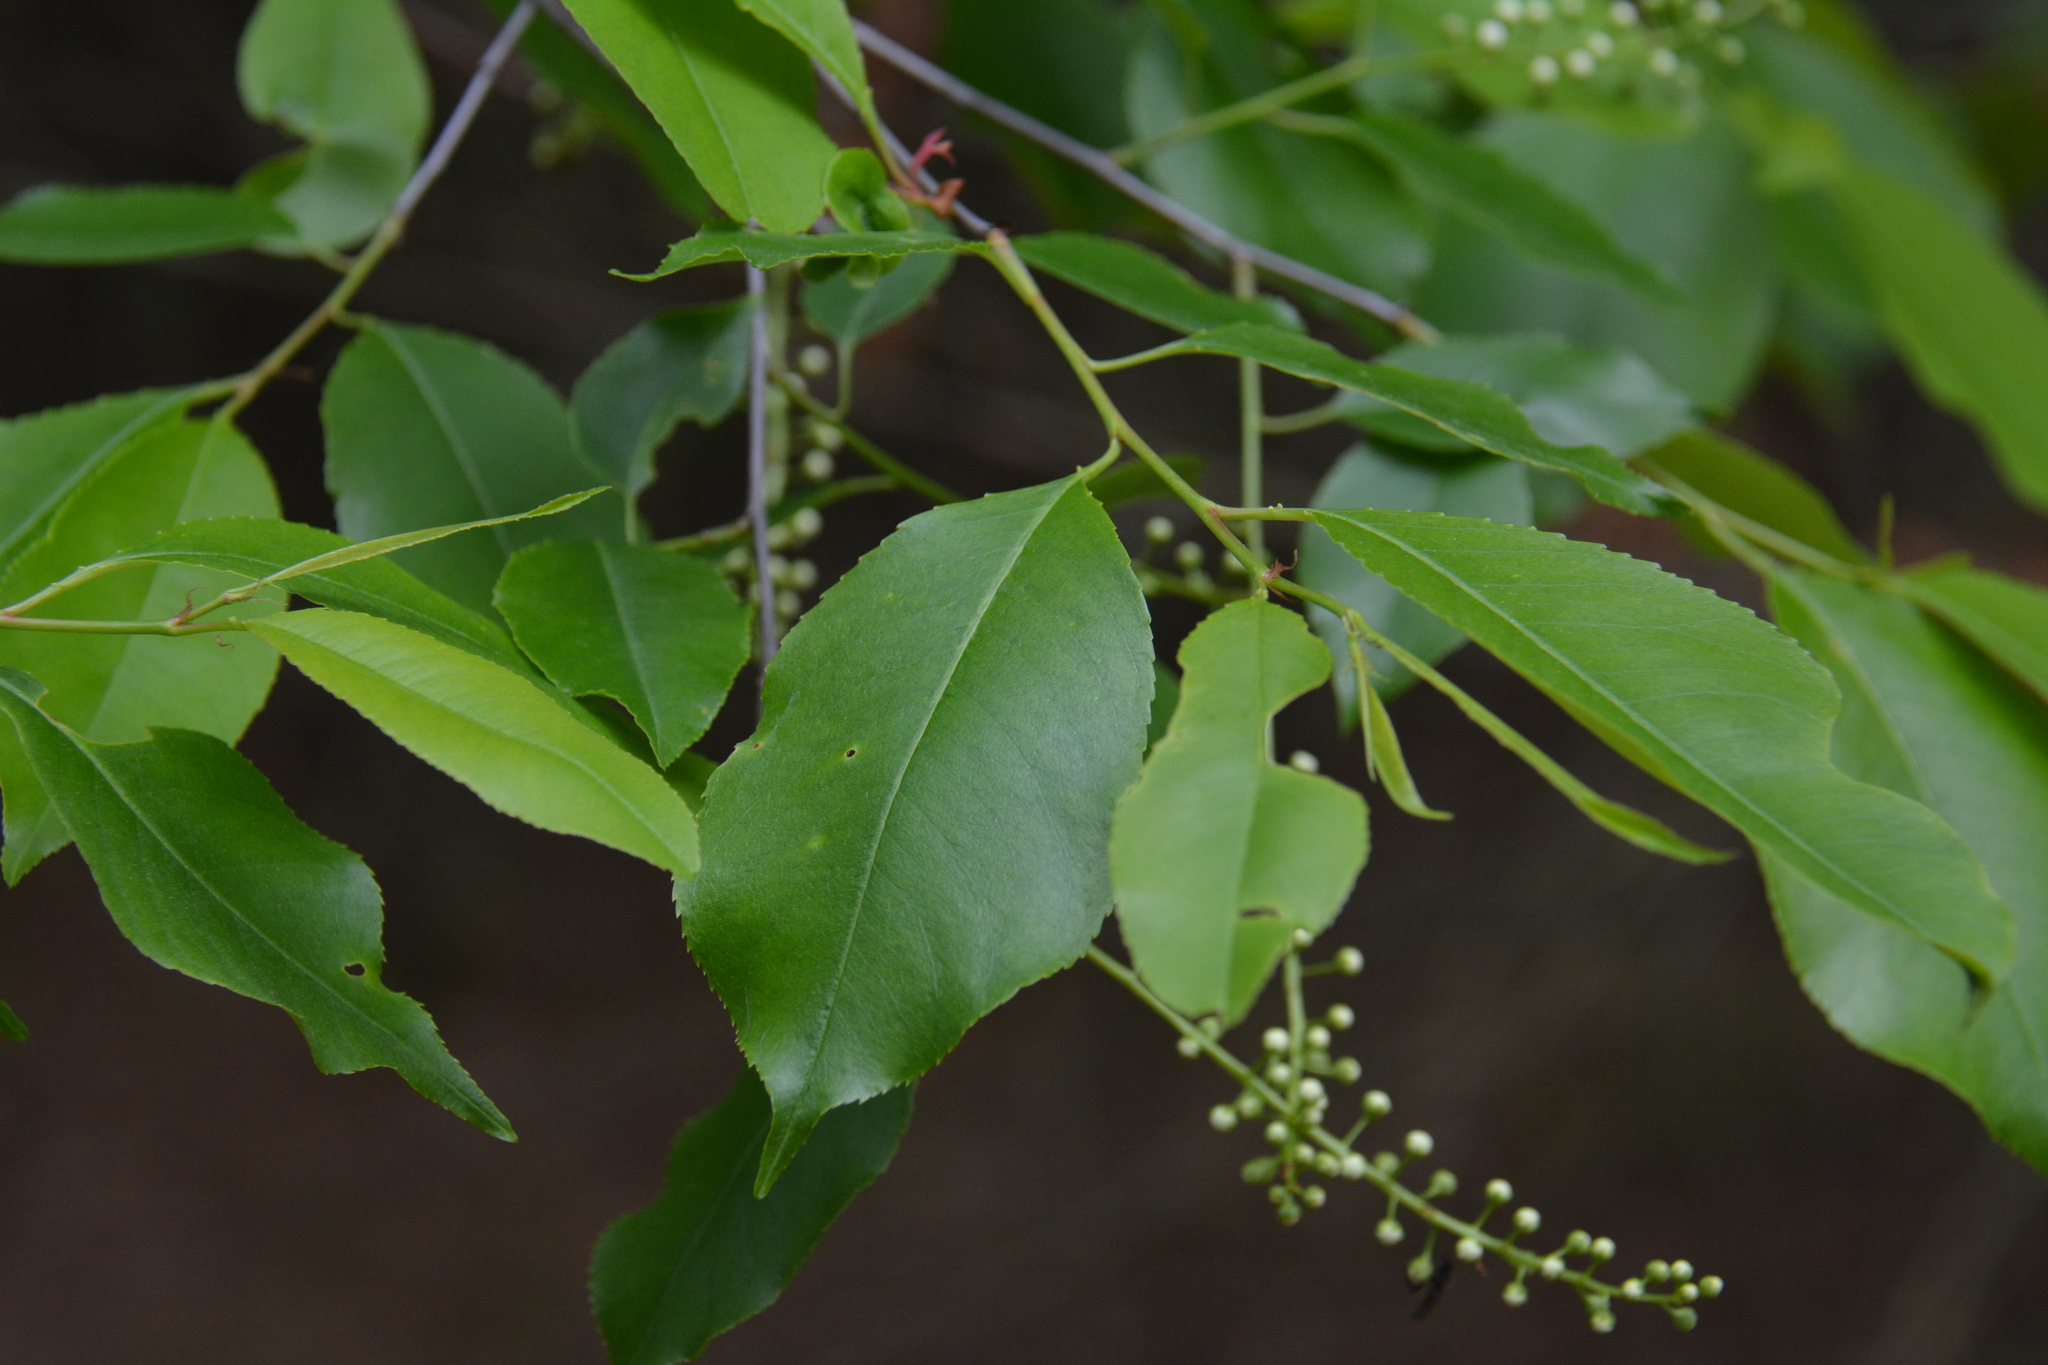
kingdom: Plantae
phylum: Tracheophyta
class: Magnoliopsida
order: Rosales
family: Rosaceae
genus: Prunus
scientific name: Prunus serotina
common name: Black cherry
